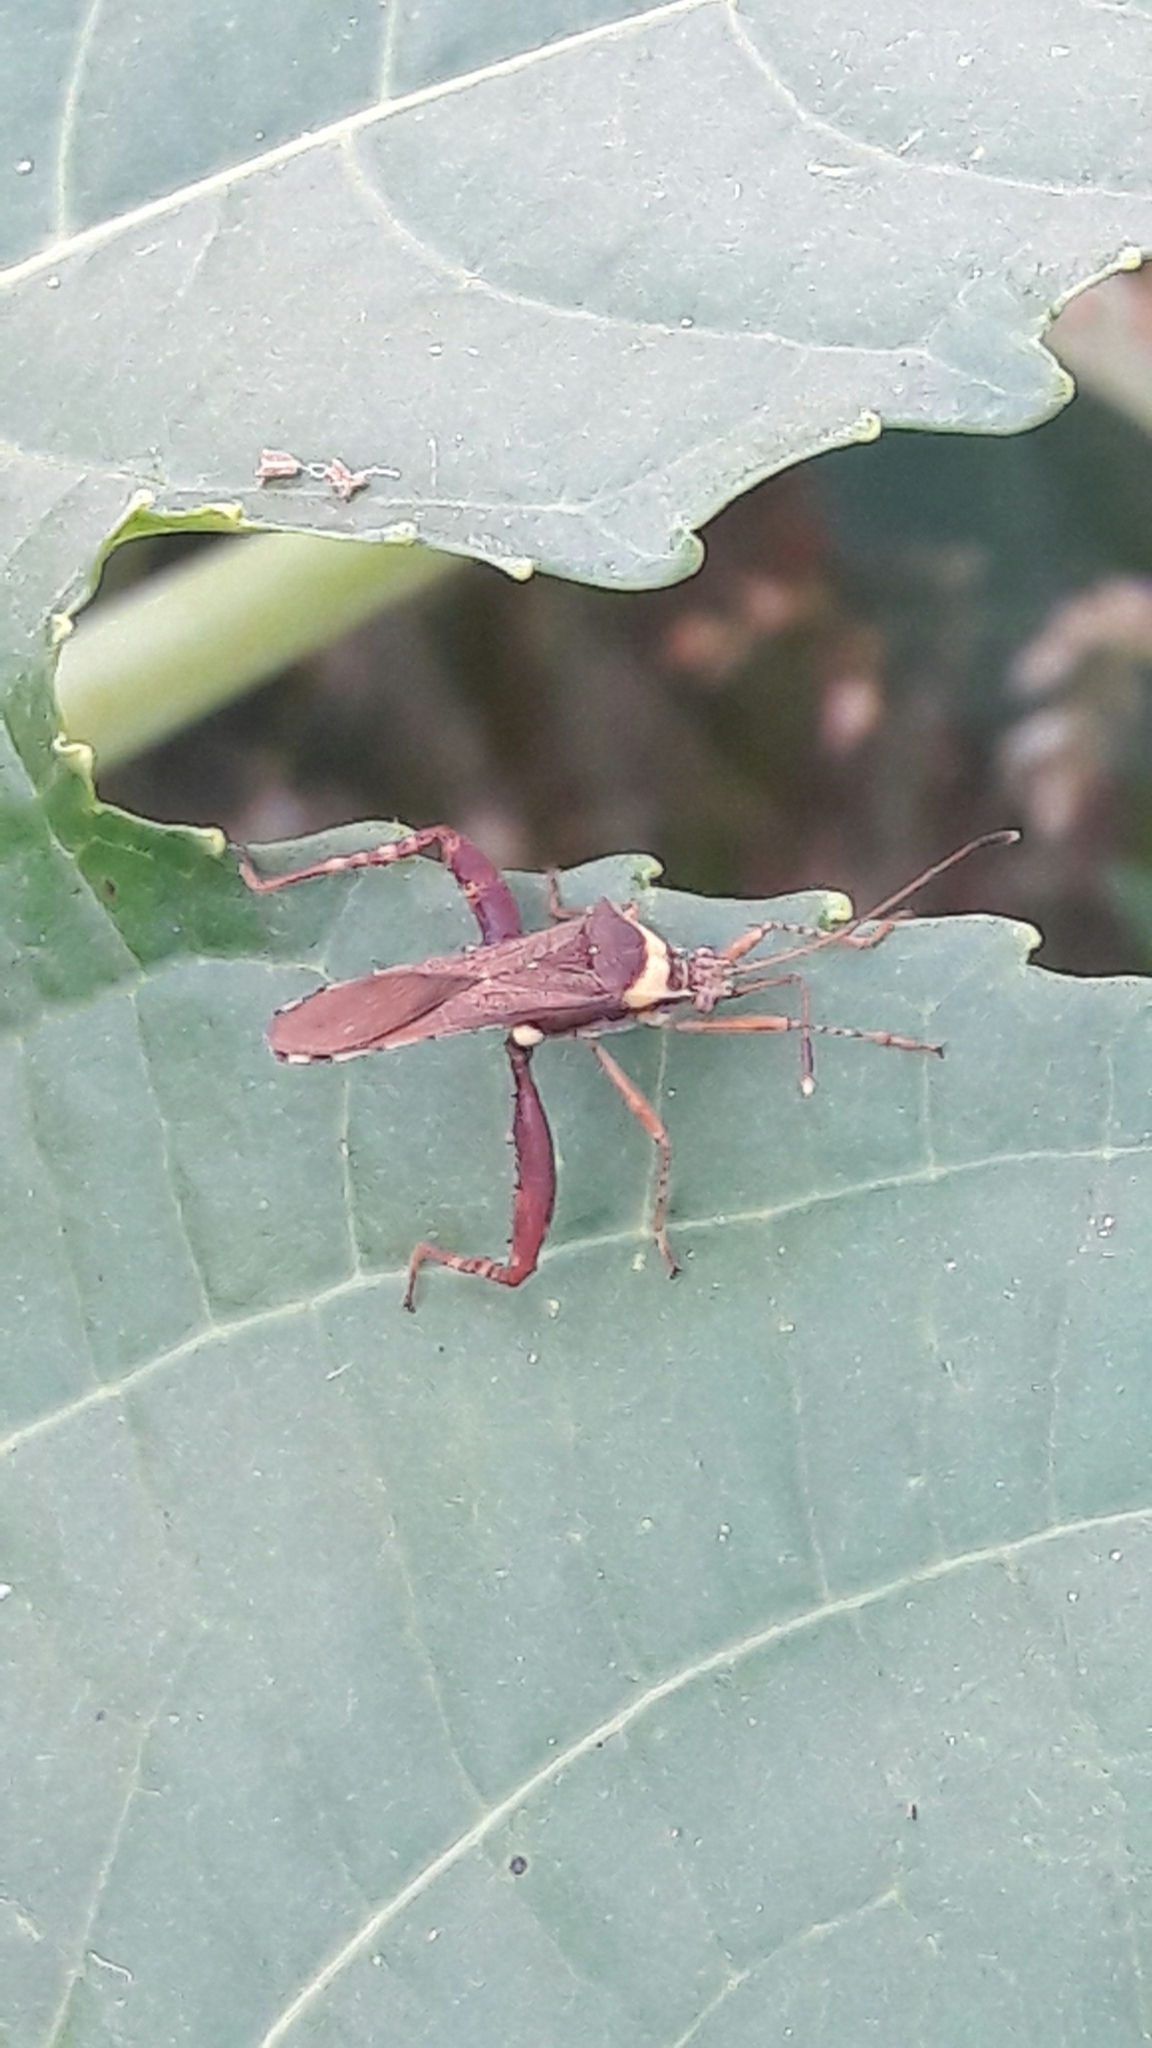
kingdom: Animalia
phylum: Arthropoda
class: Insecta
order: Hemiptera
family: Coreidae
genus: Zoreva
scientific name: Zoreva dentipes
